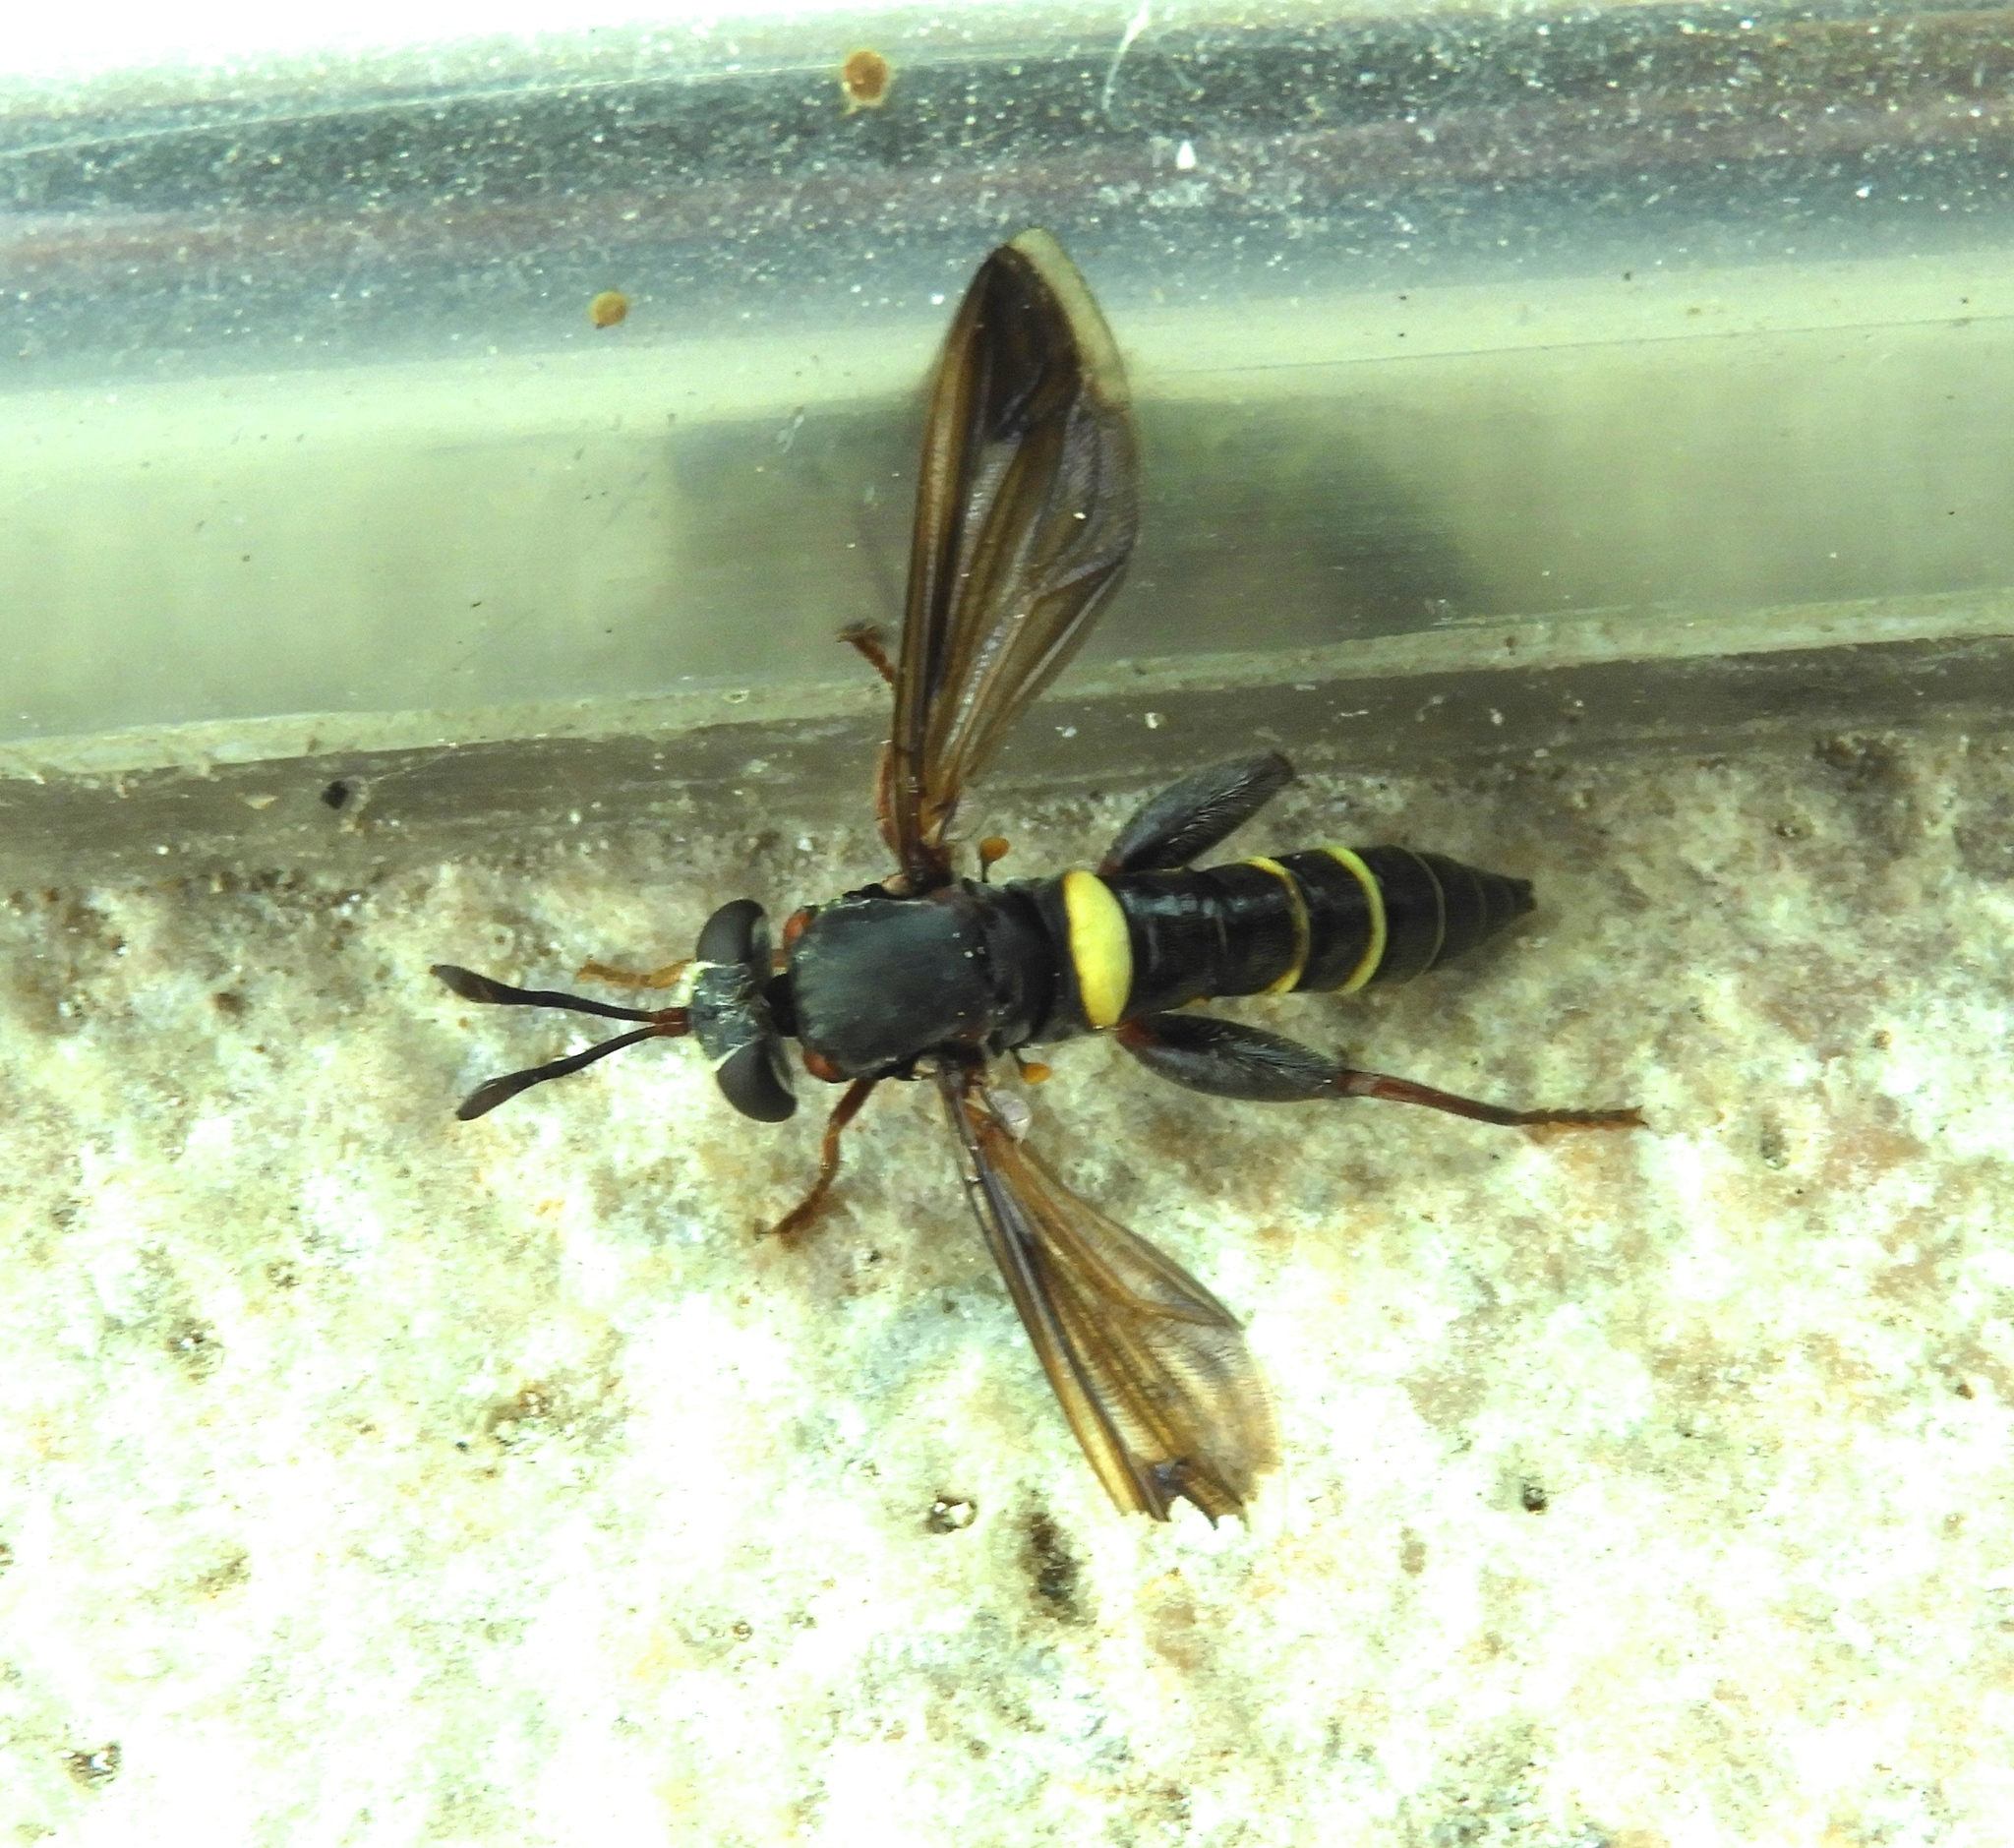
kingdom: Animalia
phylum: Arthropoda
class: Insecta
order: Diptera
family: Mydidae
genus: Mydas
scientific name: Mydas hardyi
